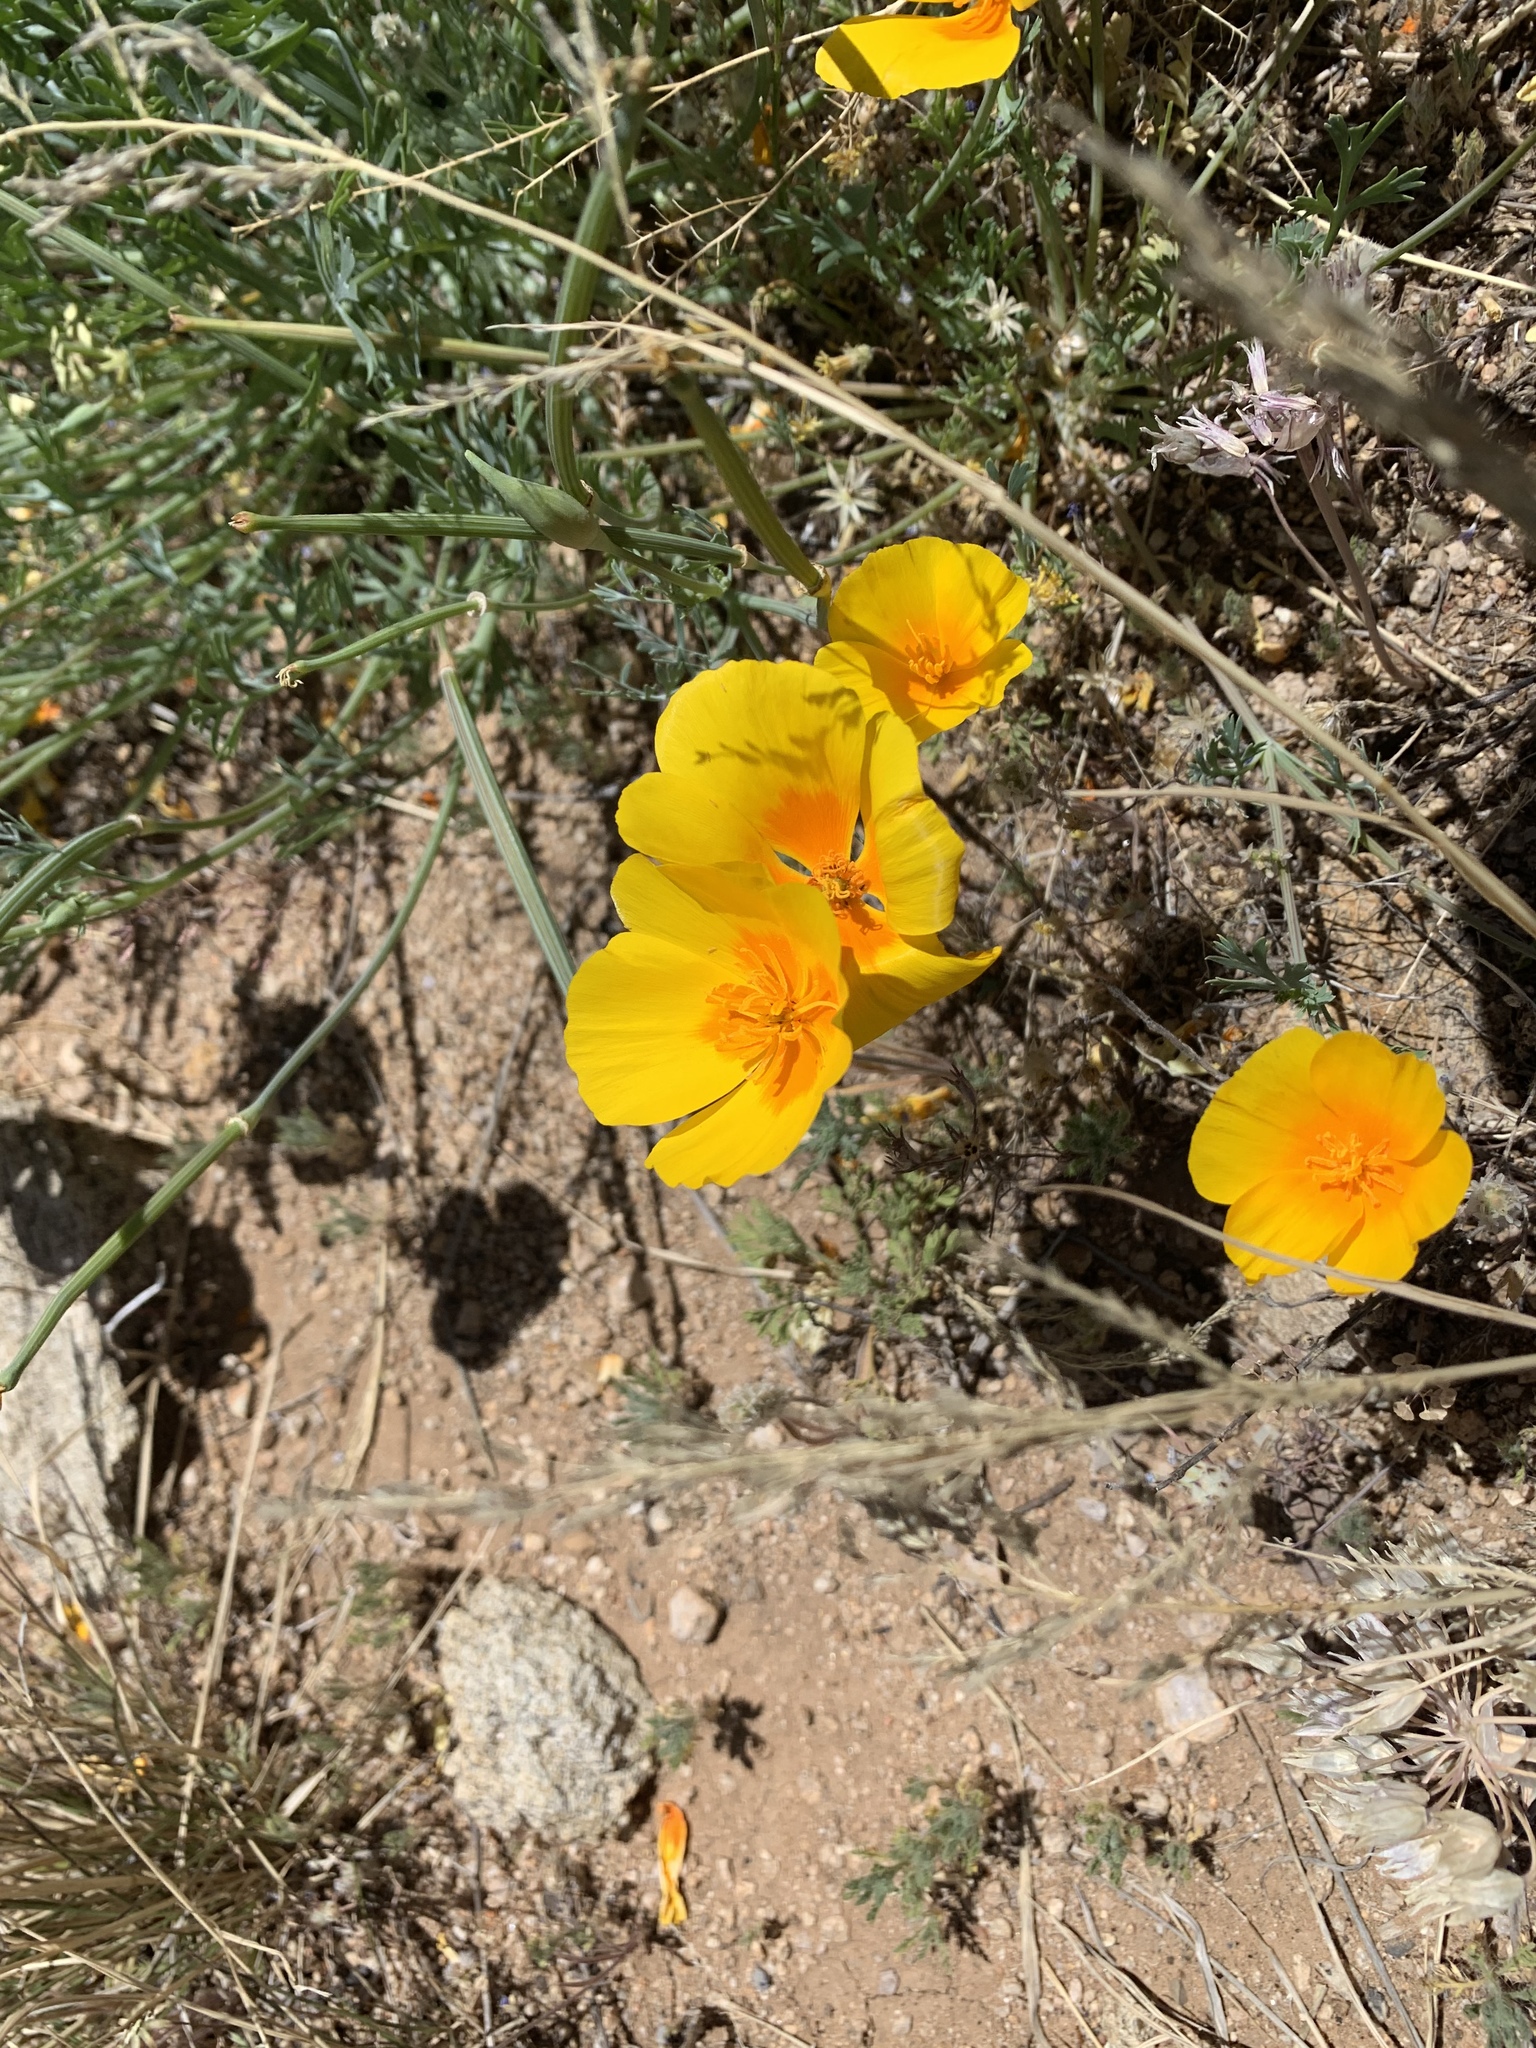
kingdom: Plantae
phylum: Tracheophyta
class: Magnoliopsida
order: Ranunculales
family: Papaveraceae
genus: Eschscholzia
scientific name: Eschscholzia californica
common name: California poppy
